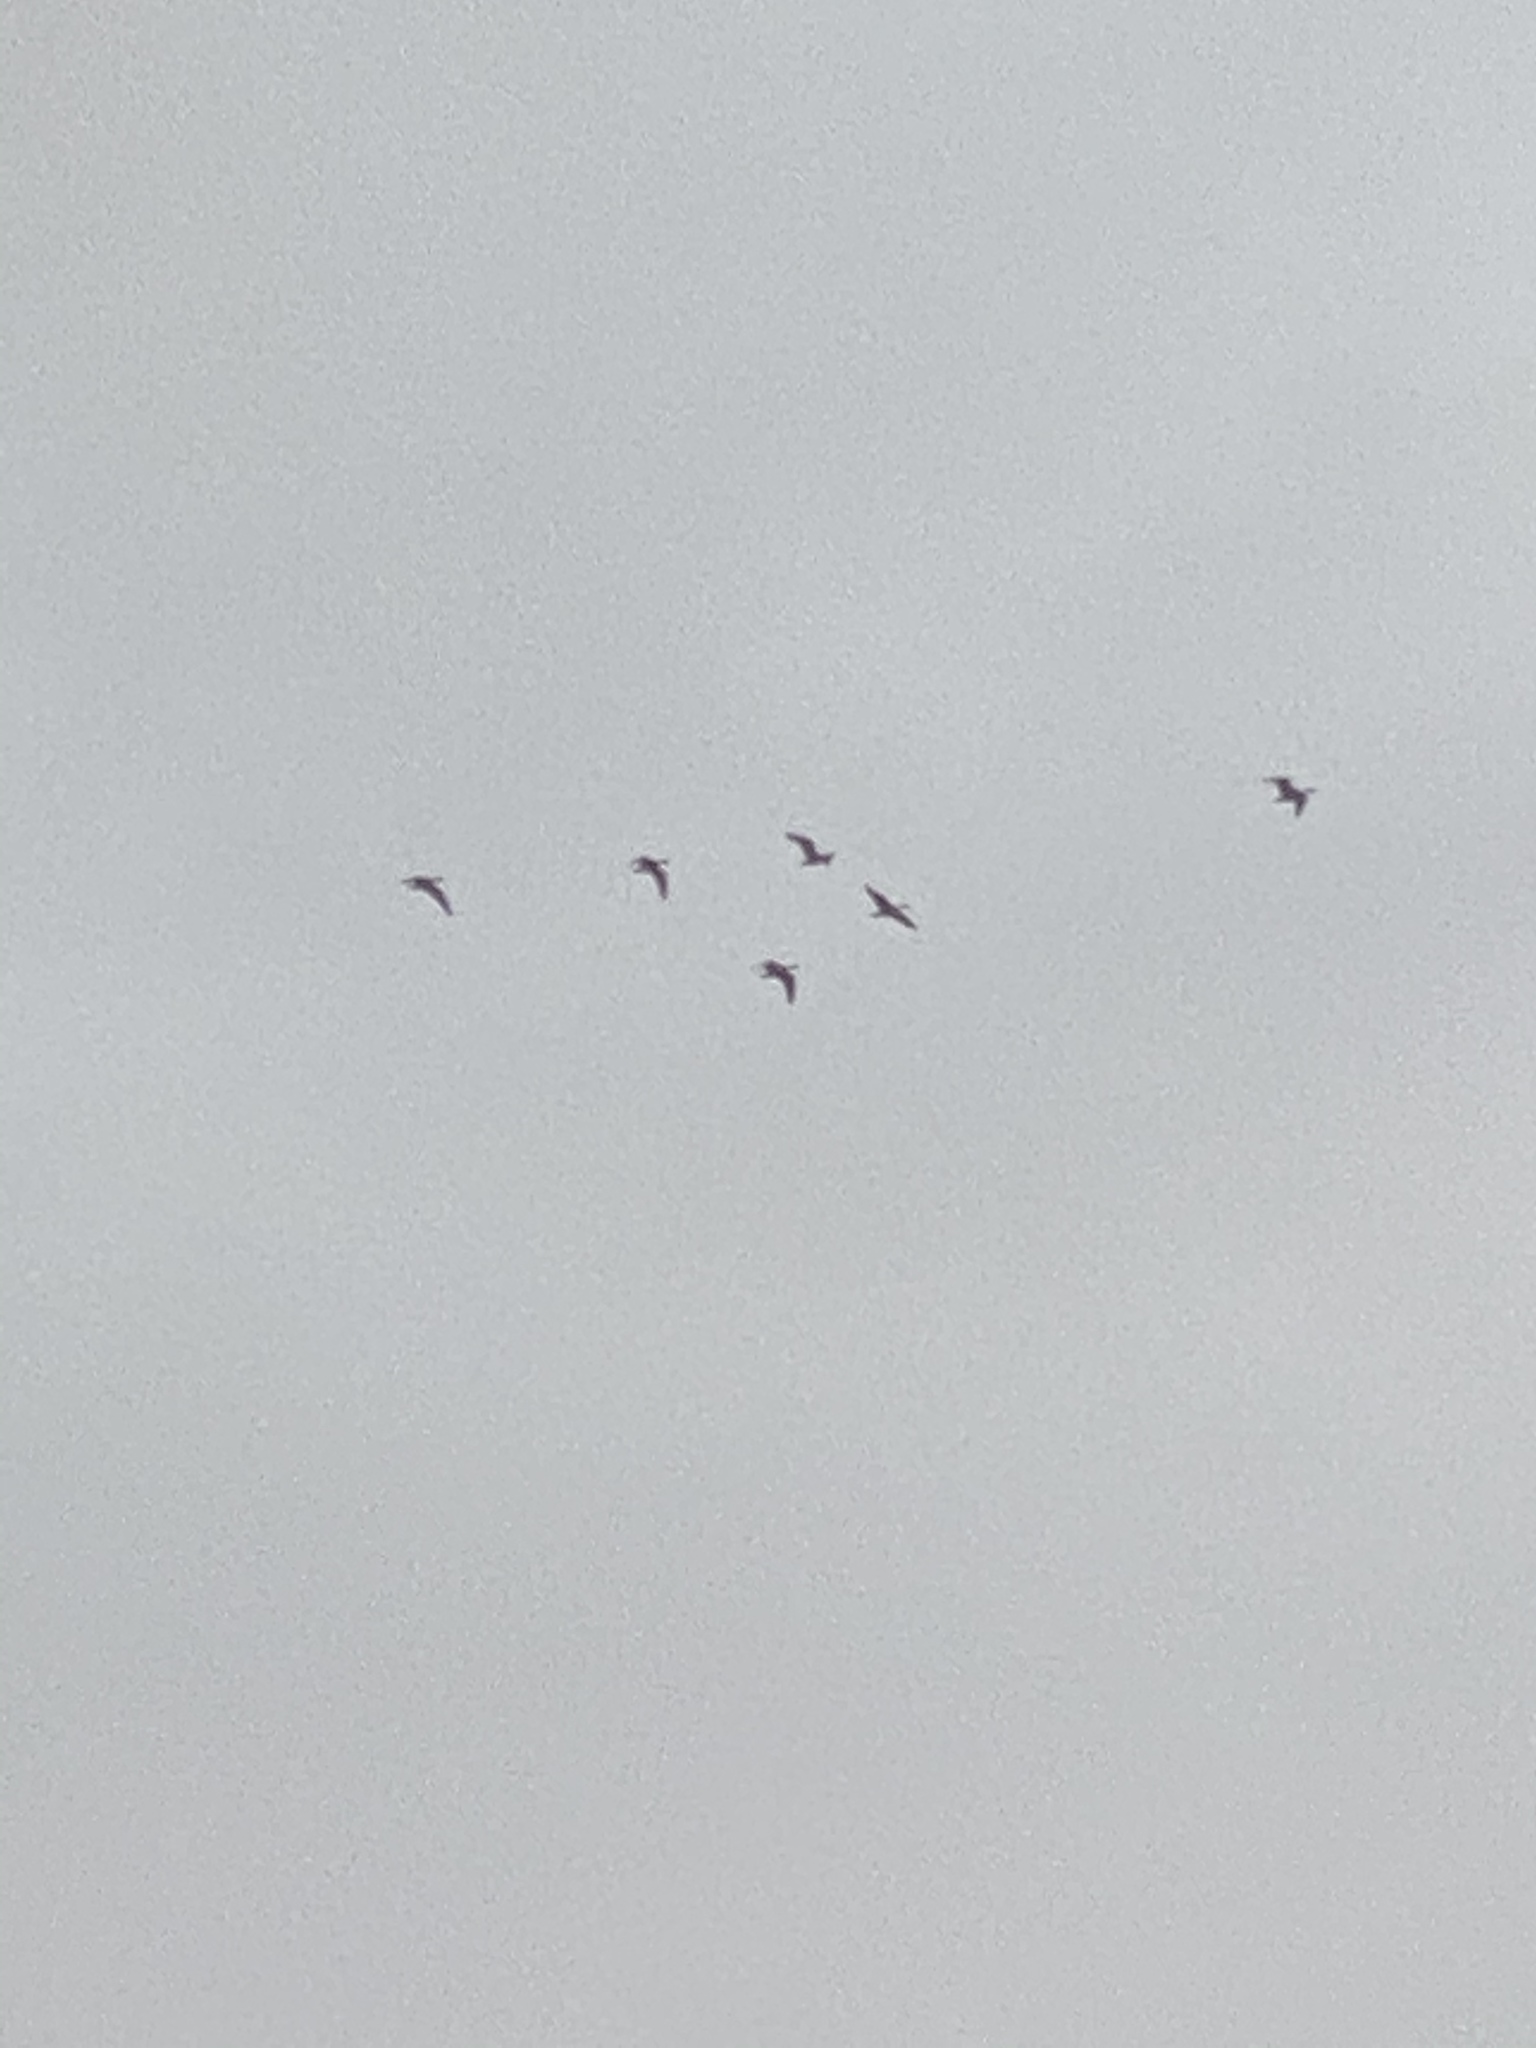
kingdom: Animalia
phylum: Chordata
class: Aves
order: Anseriformes
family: Anatidae
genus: Branta
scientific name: Branta canadensis
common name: Canada goose
